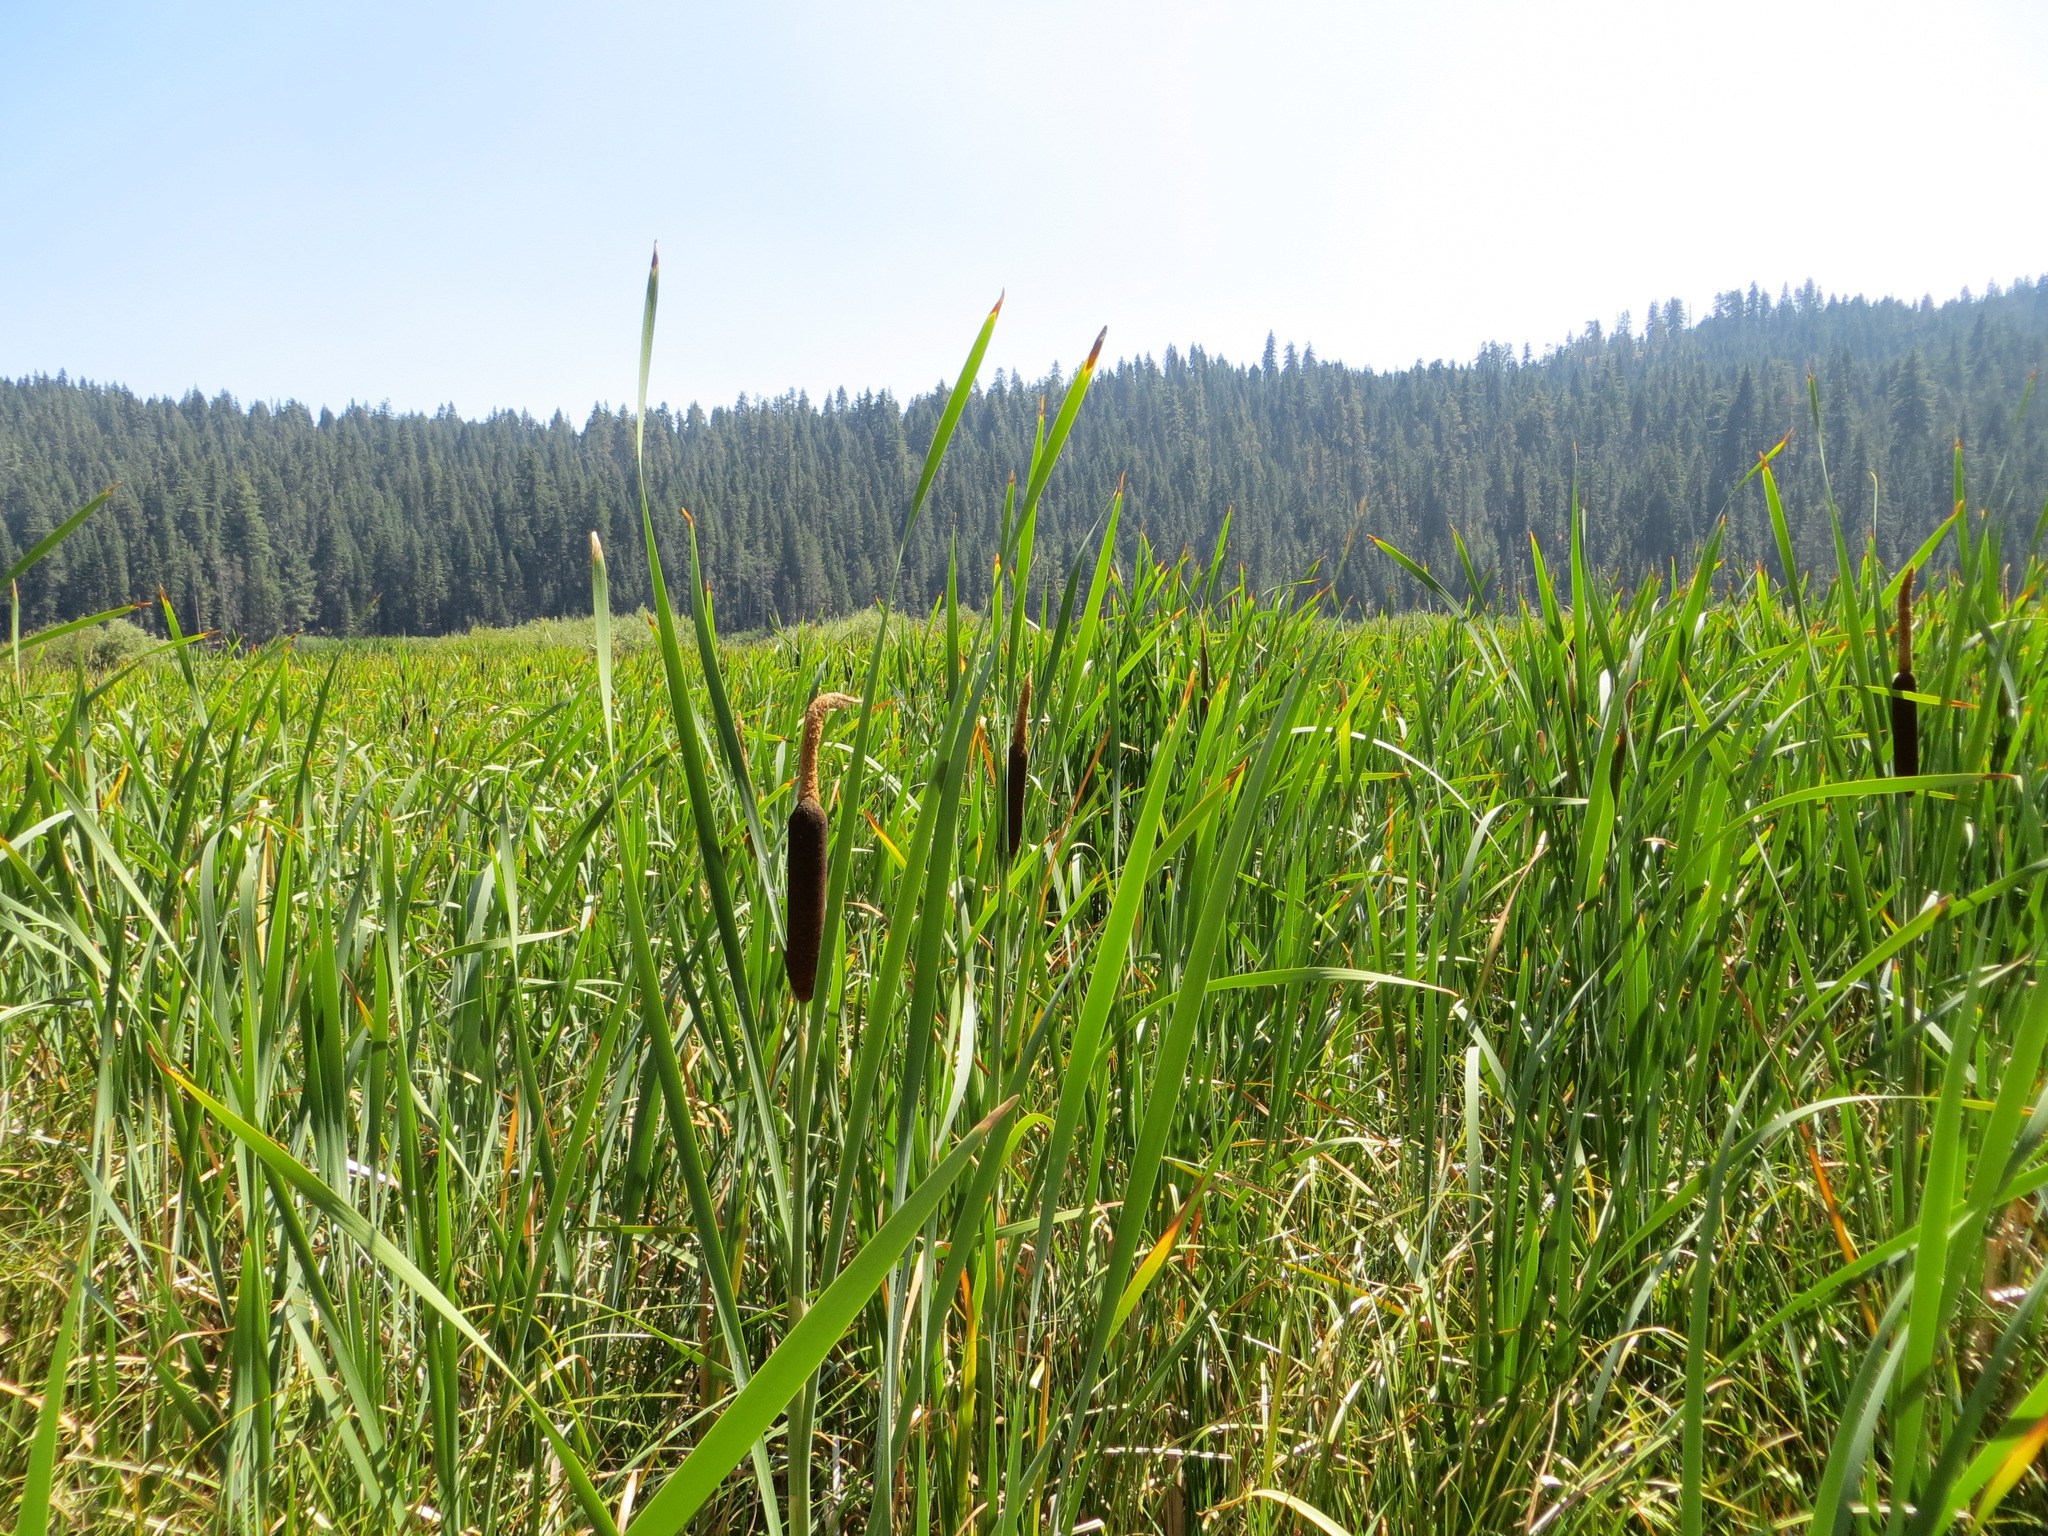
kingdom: Plantae
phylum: Tracheophyta
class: Liliopsida
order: Poales
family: Typhaceae
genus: Typha
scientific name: Typha latifolia
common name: Broadleaf cattail
